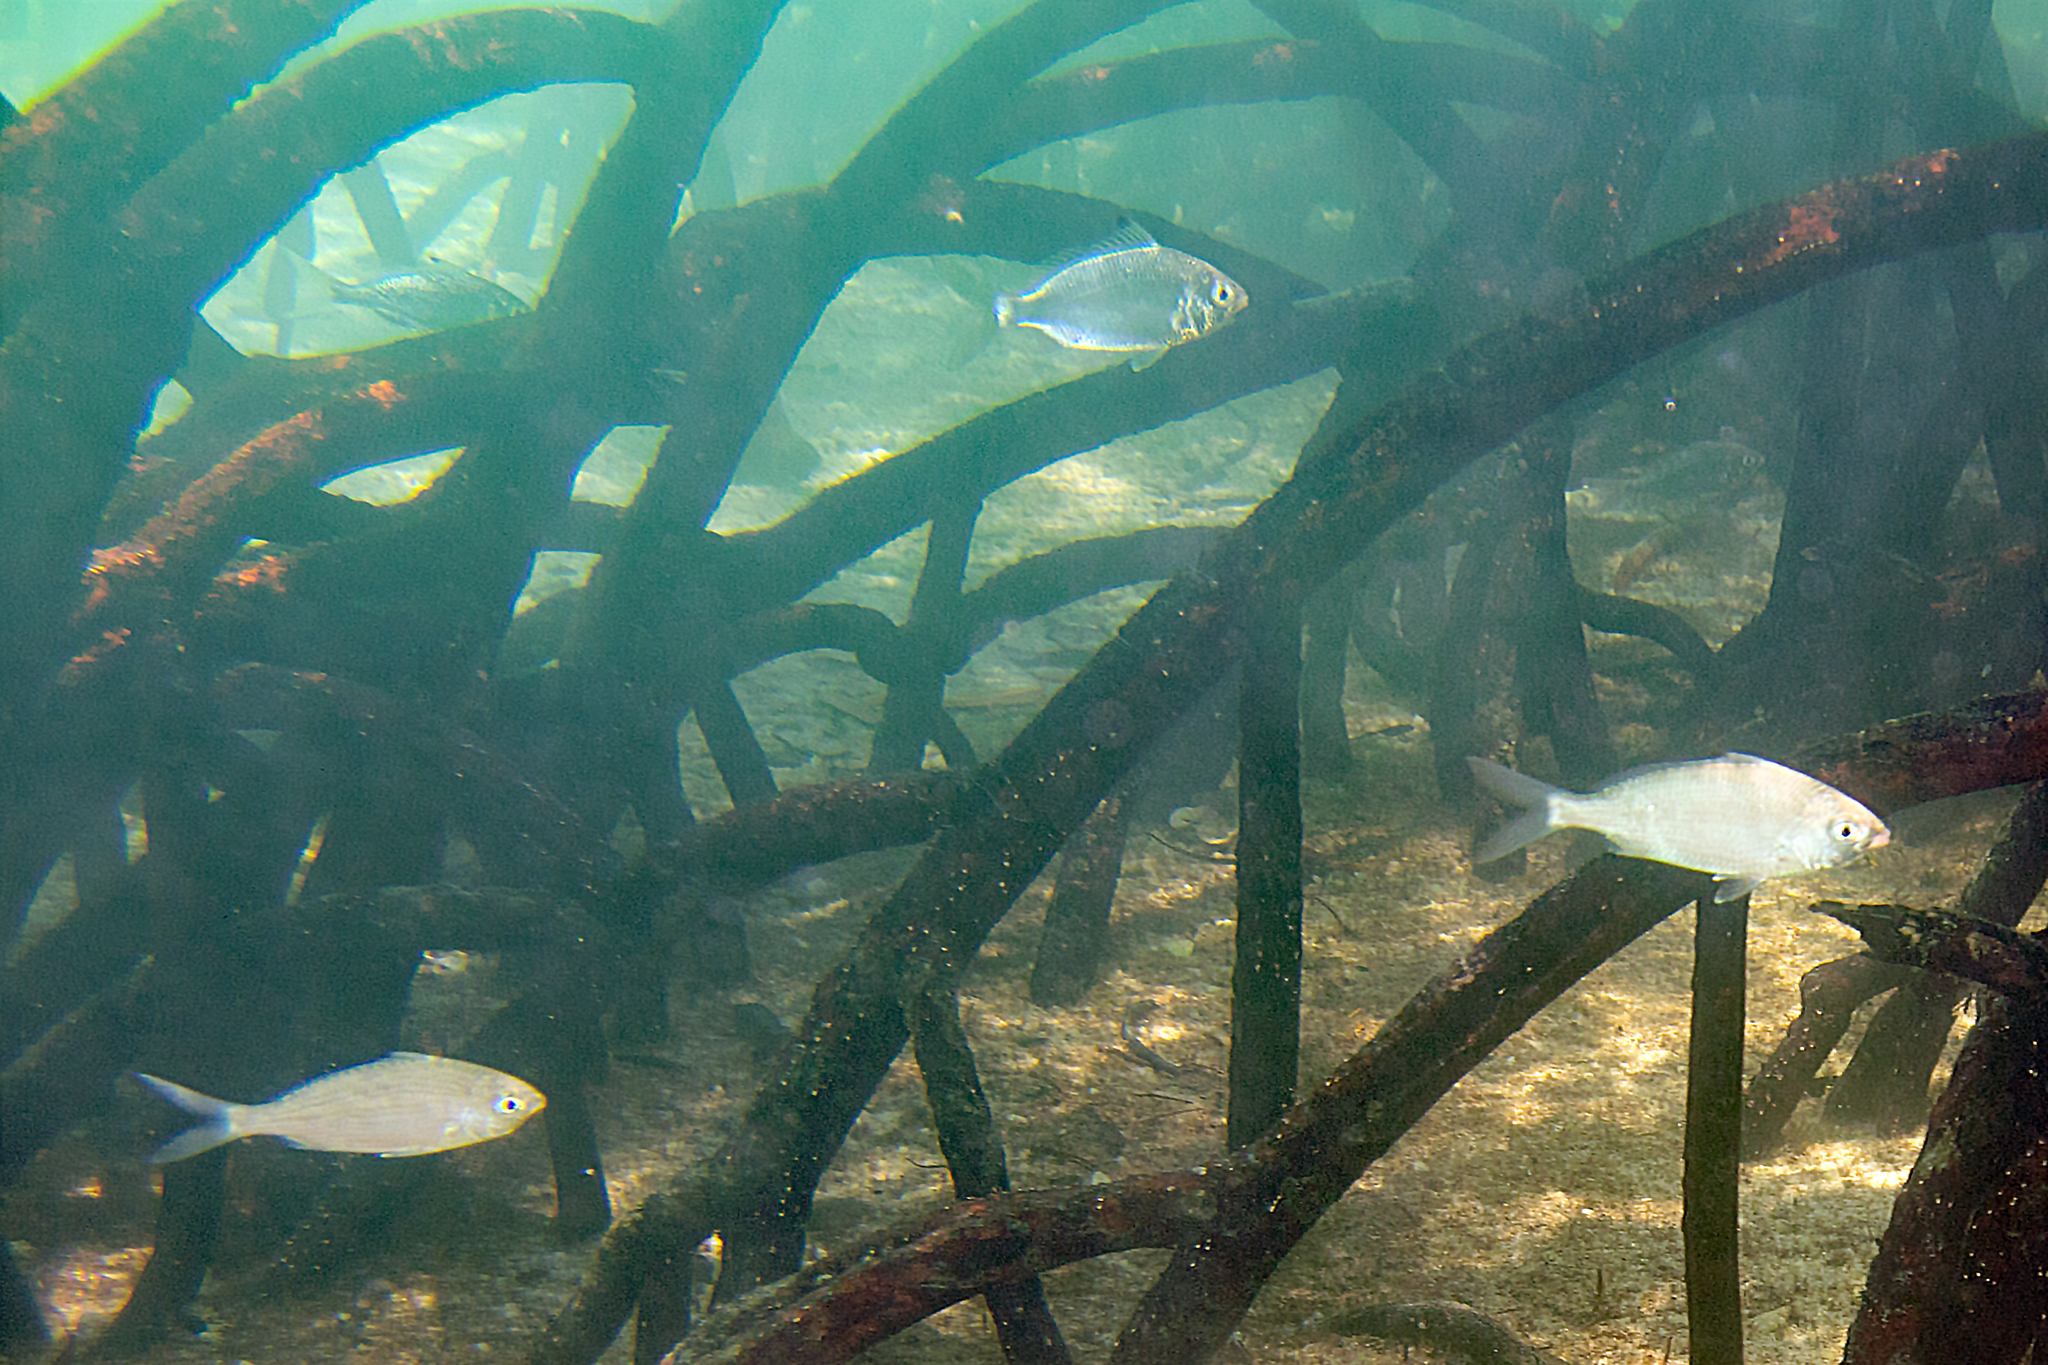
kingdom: Animalia
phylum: Chordata
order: Perciformes
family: Gerreidae
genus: Gerres
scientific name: Gerres oyena
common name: Common silver-biddy
